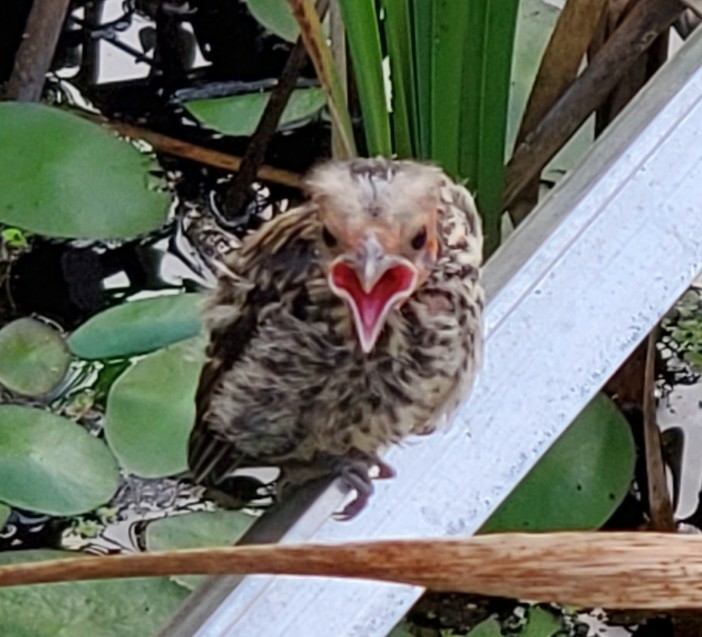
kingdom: Animalia
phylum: Chordata
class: Aves
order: Passeriformes
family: Icteridae
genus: Agelaius
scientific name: Agelaius phoeniceus
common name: Red-winged blackbird
